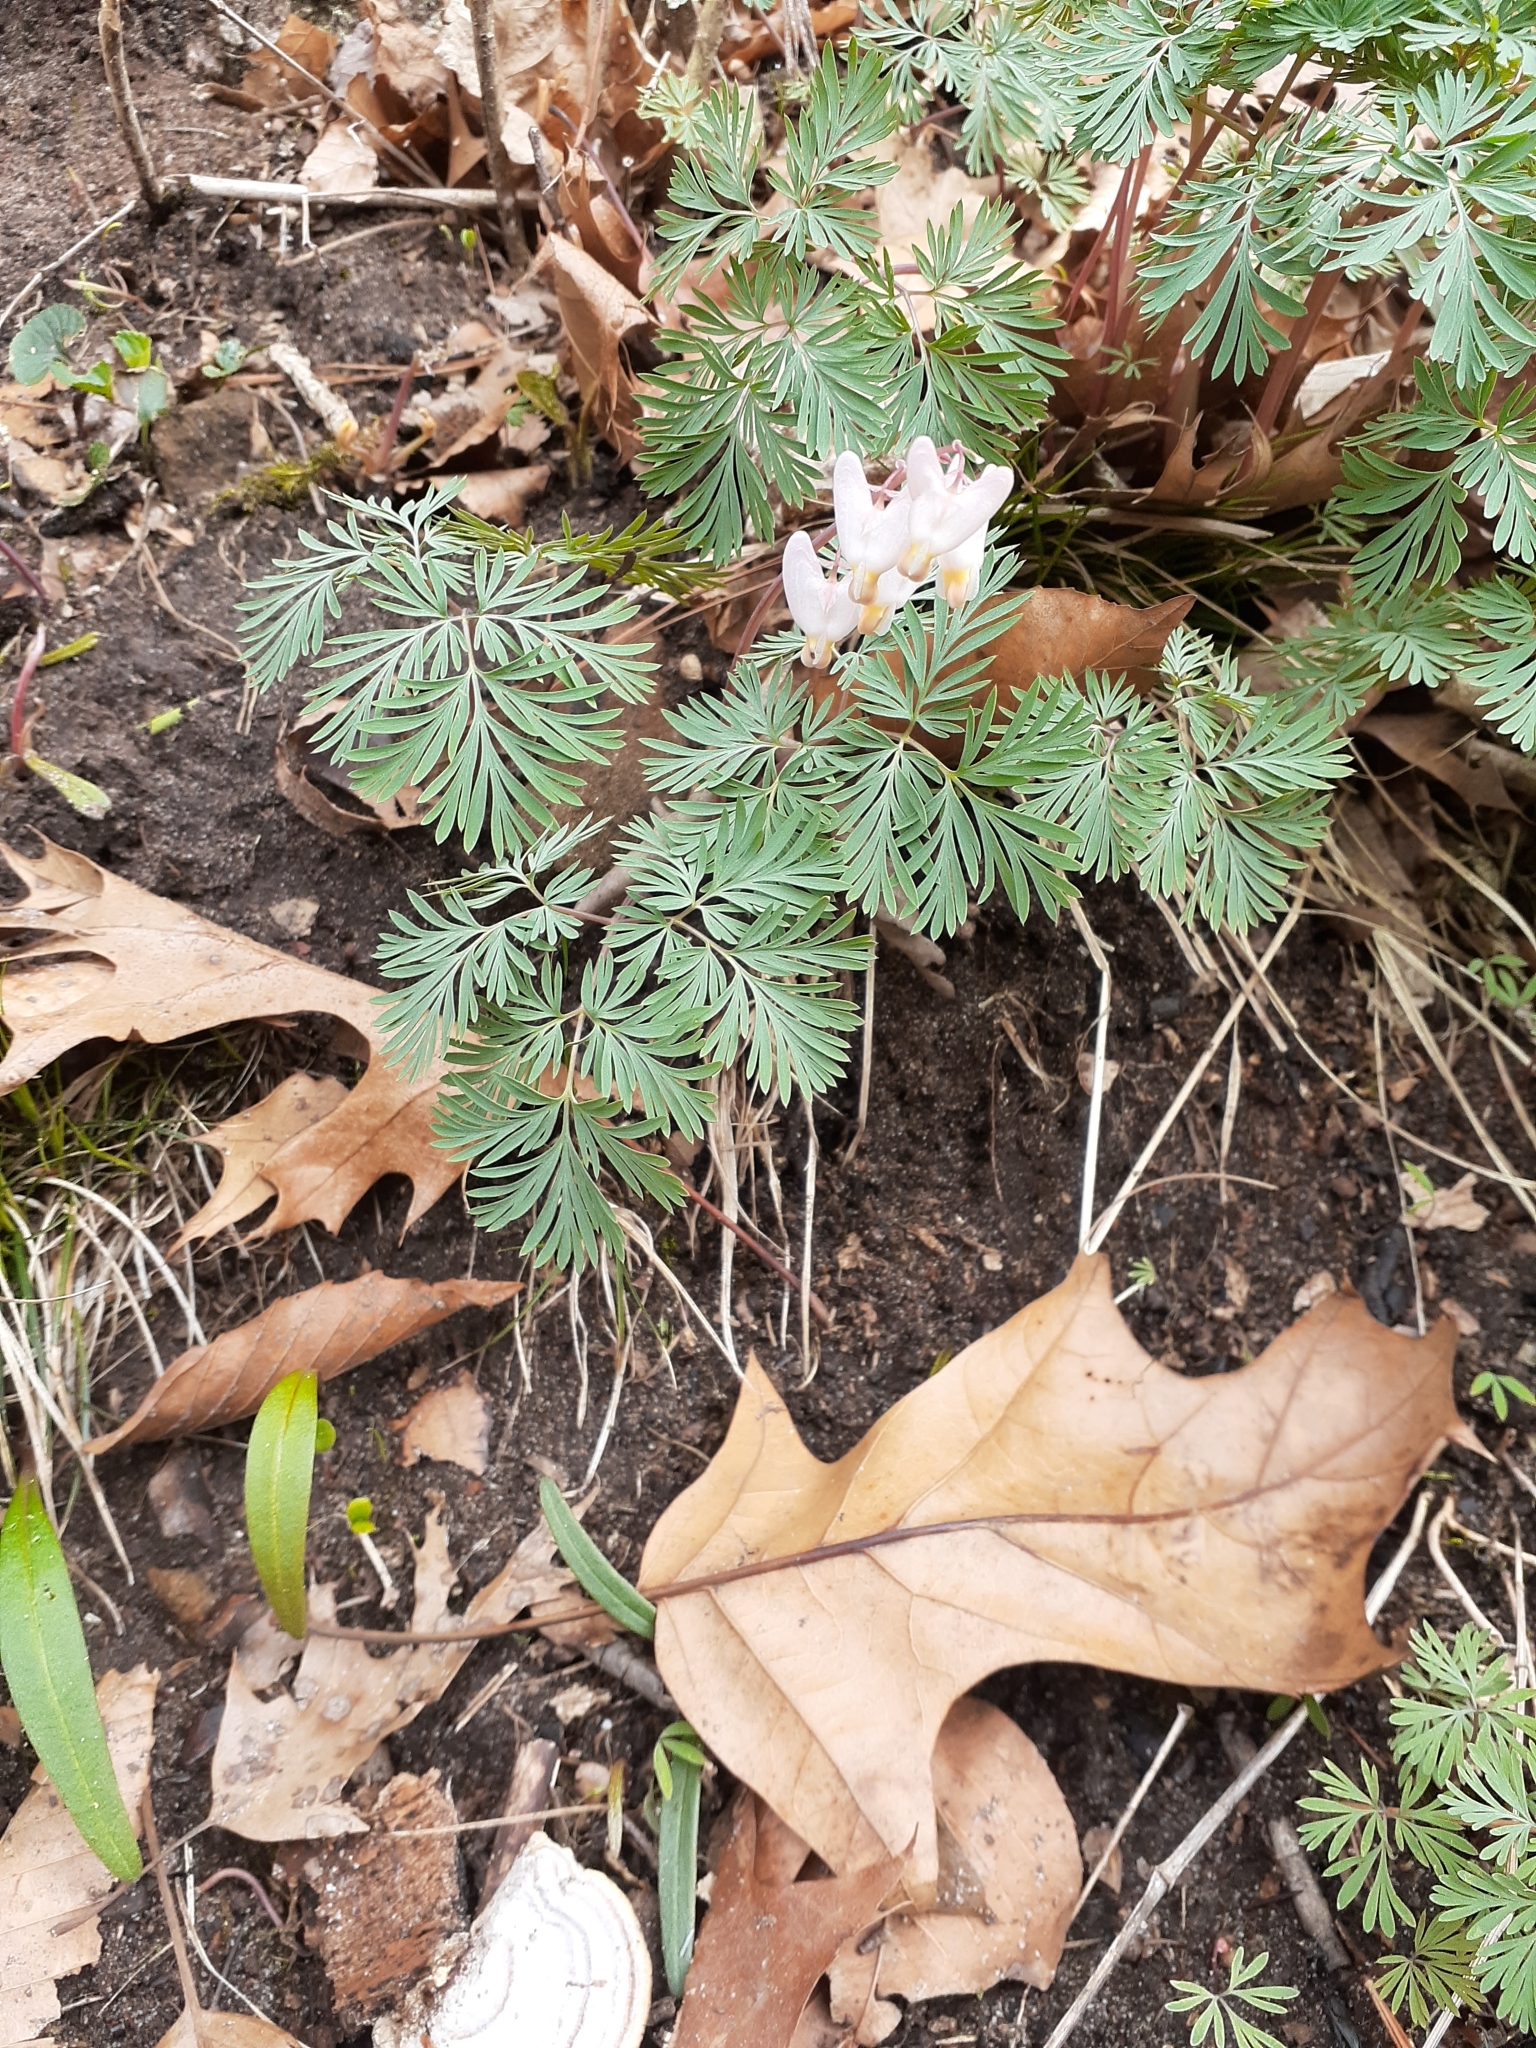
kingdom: Plantae
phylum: Tracheophyta
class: Magnoliopsida
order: Ranunculales
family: Papaveraceae
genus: Dicentra
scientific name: Dicentra cucullaria
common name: Dutchman's breeches
